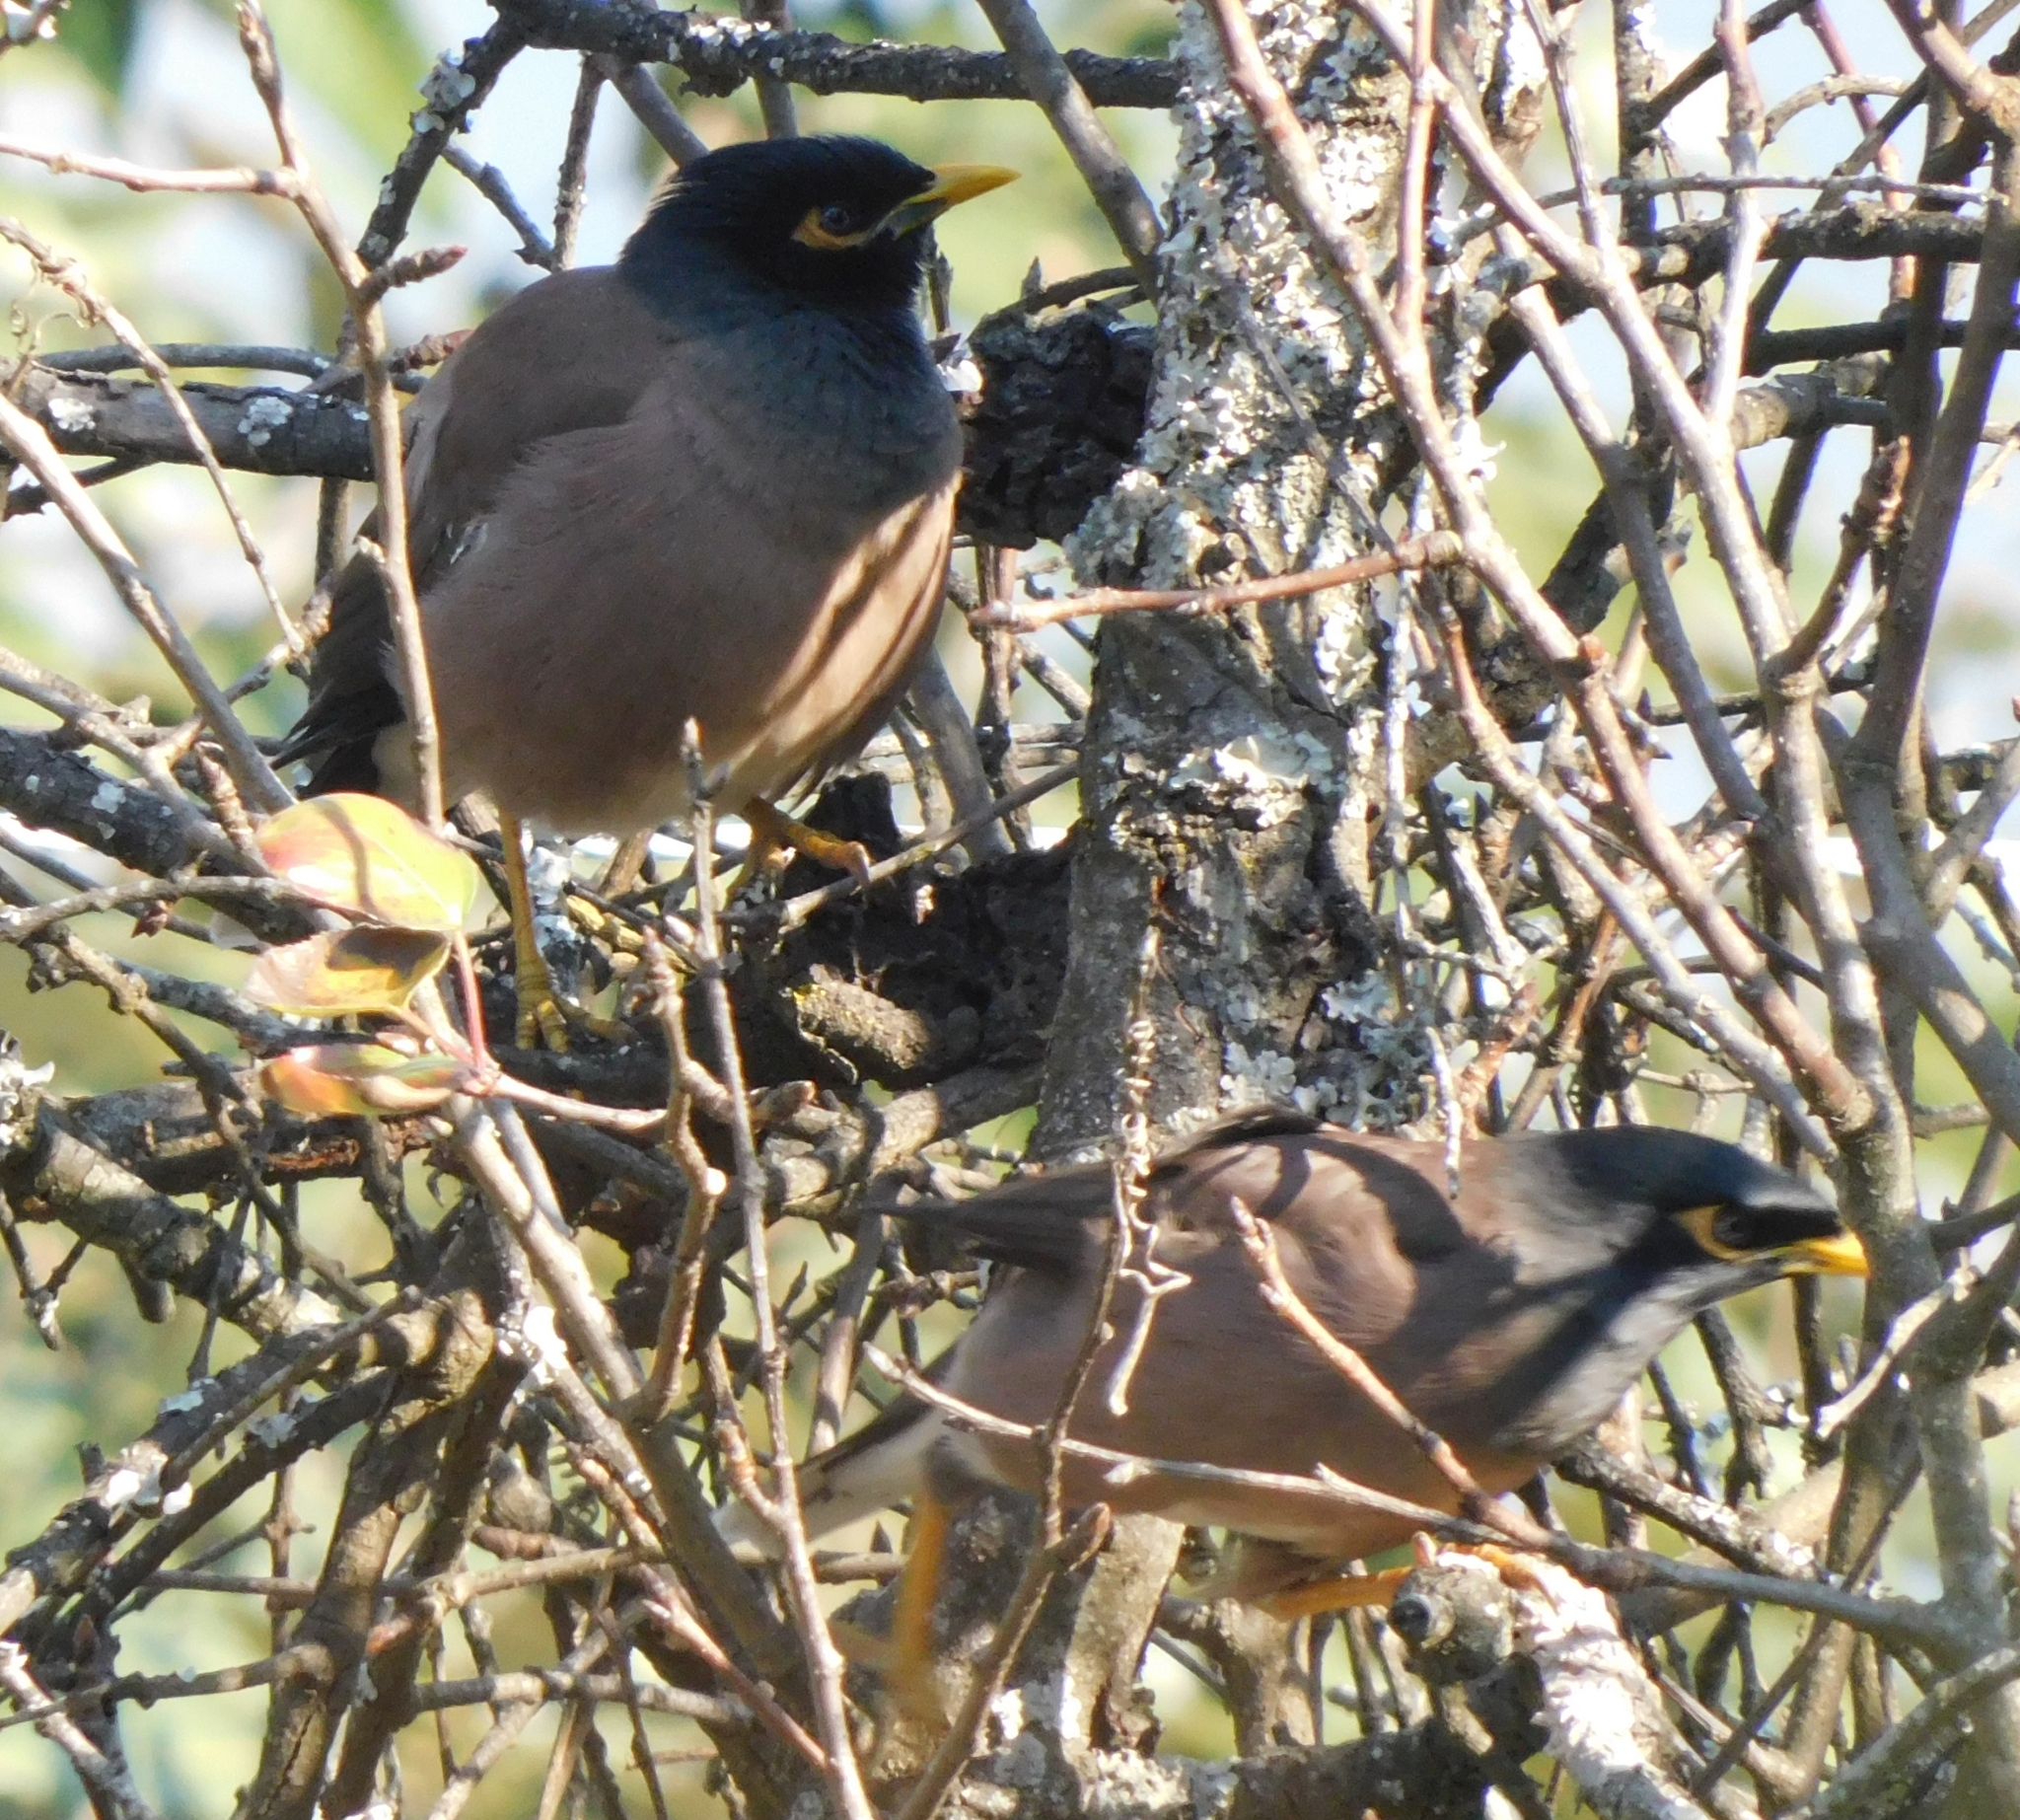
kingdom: Animalia
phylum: Chordata
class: Aves
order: Passeriformes
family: Sturnidae
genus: Acridotheres
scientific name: Acridotheres tristis
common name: Common myna
